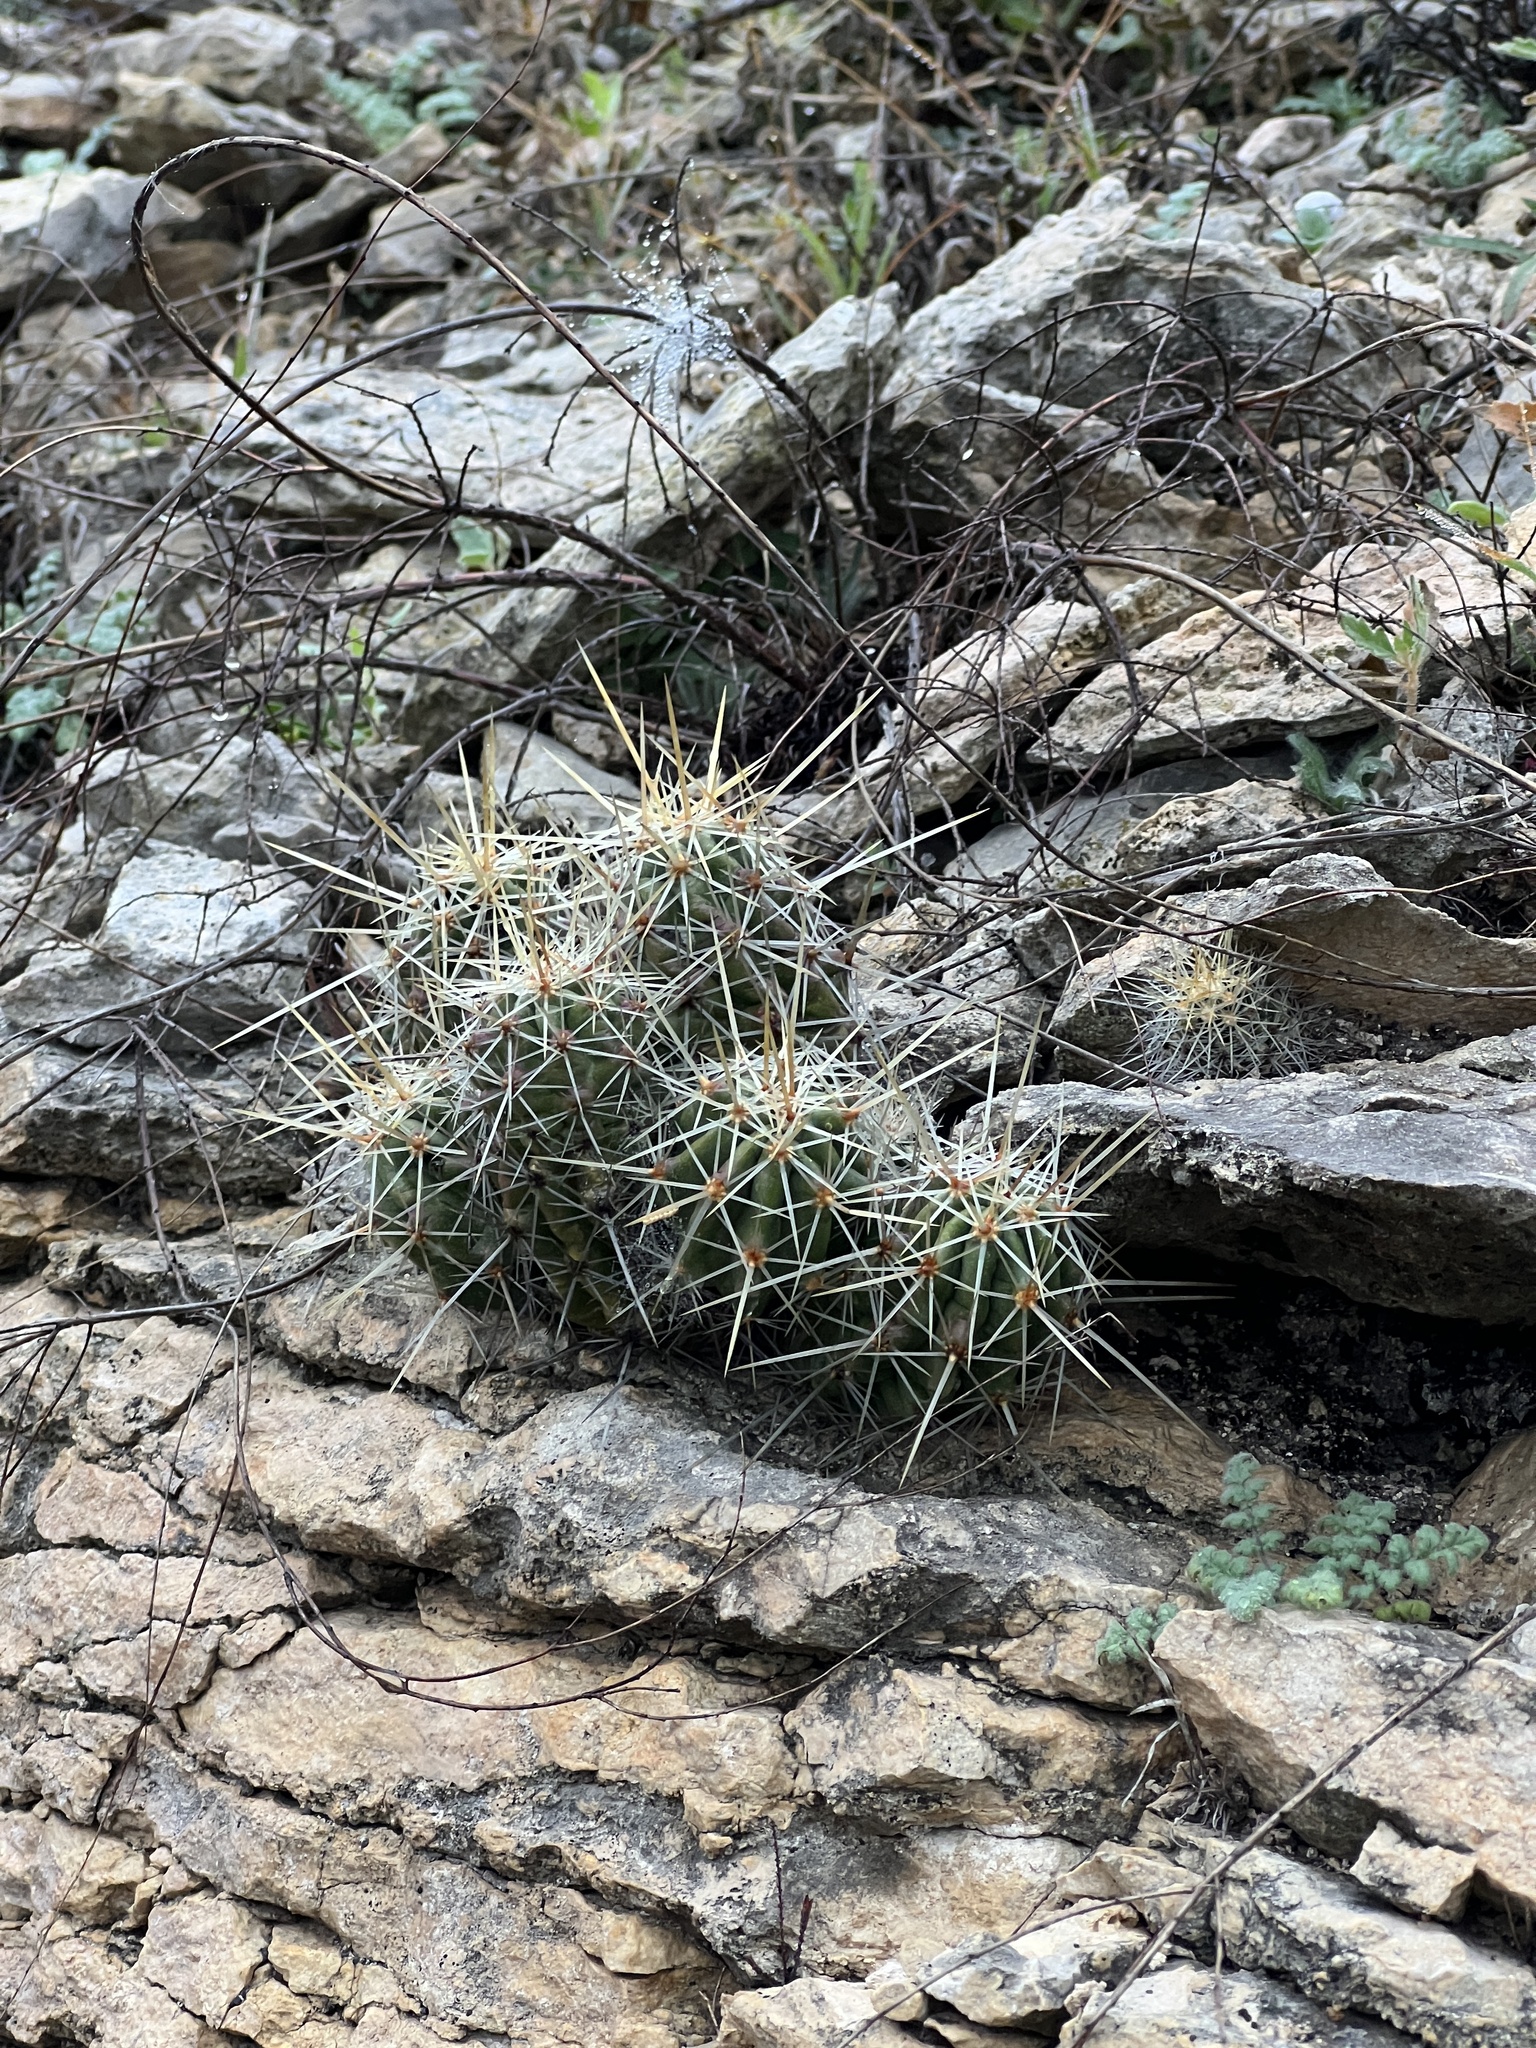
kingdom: Plantae
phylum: Tracheophyta
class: Magnoliopsida
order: Caryophyllales
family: Cactaceae
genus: Echinocereus
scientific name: Echinocereus enneacanthus
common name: Pitaya
